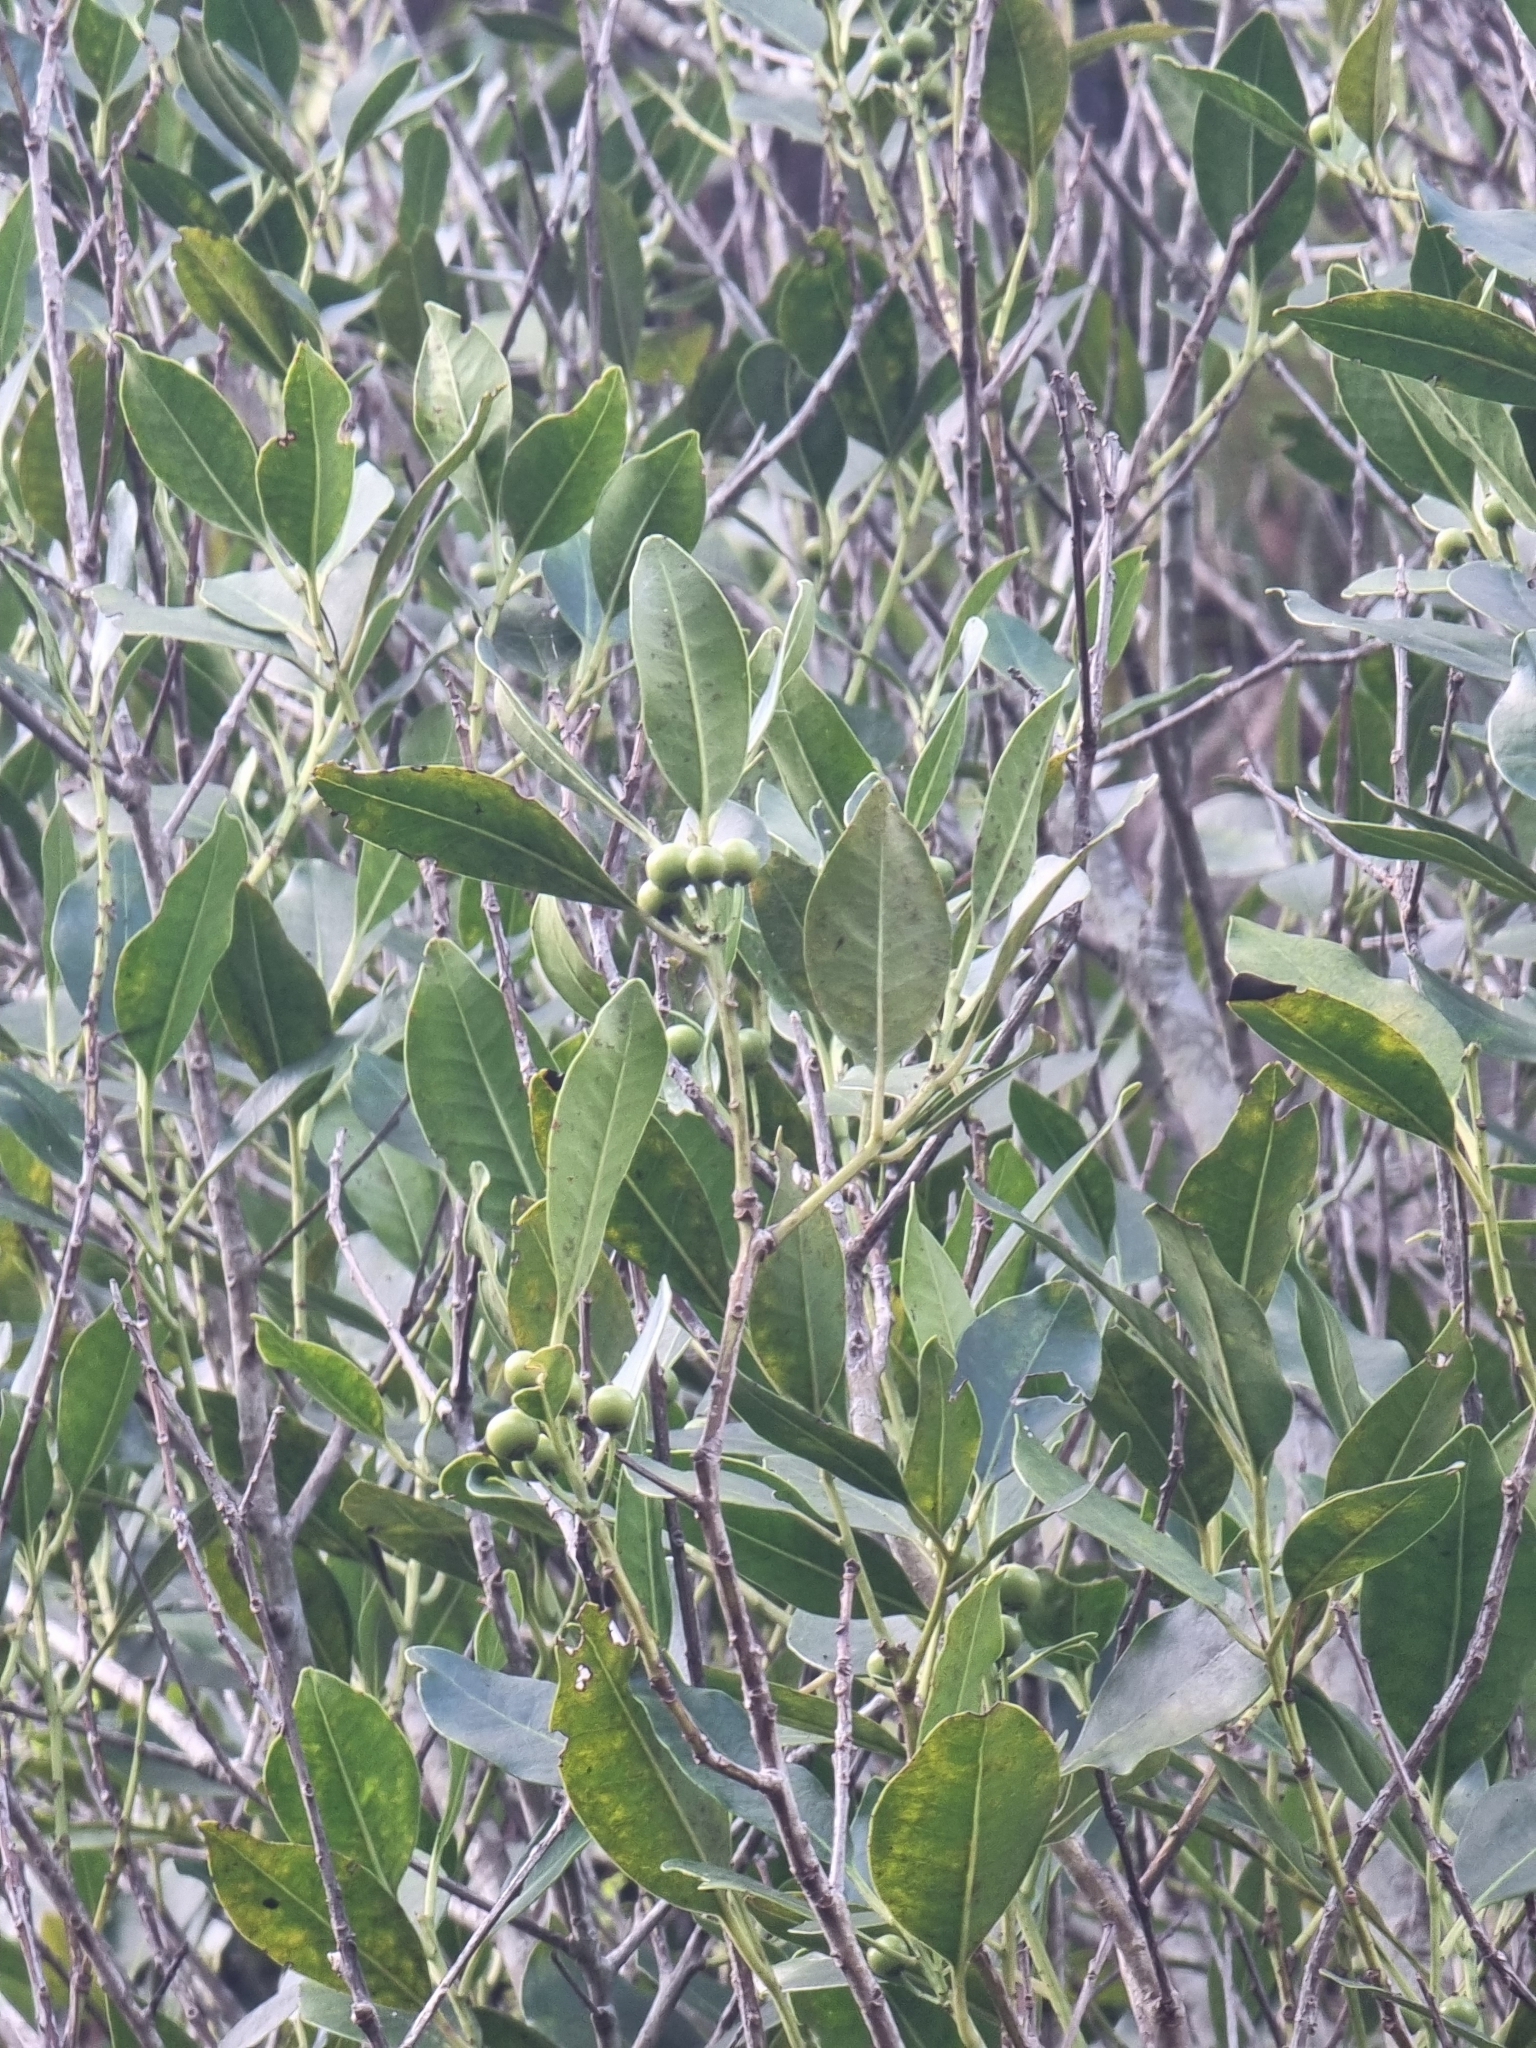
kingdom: Plantae
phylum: Tracheophyta
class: Magnoliopsida
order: Aquifoliales
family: Aquifoliaceae
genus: Ilex
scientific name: Ilex canariensis
